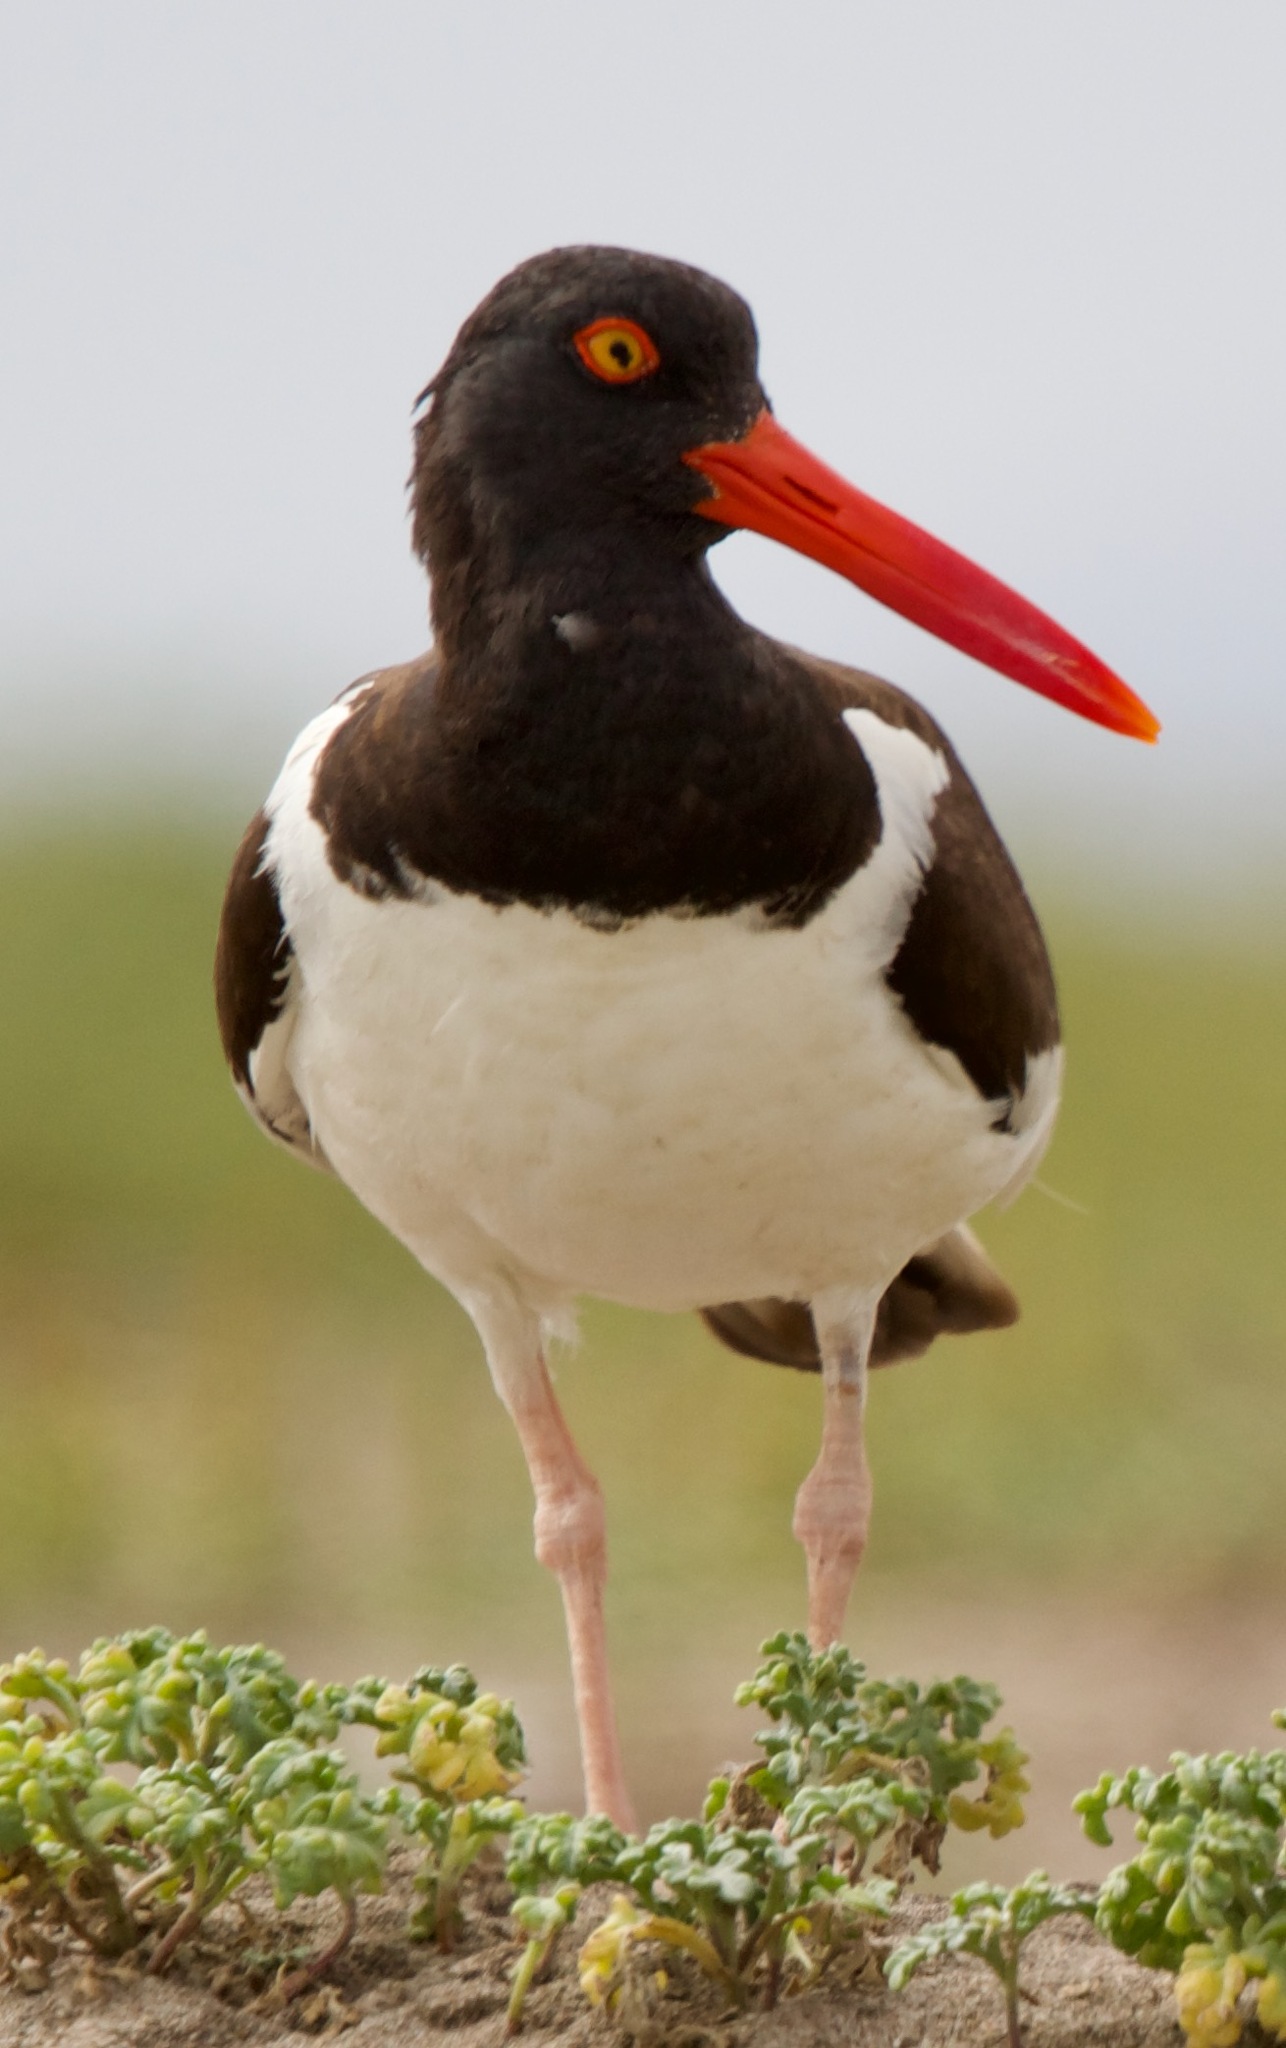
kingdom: Animalia
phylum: Chordata
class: Aves
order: Charadriiformes
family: Haematopodidae
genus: Haematopus
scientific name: Haematopus palliatus
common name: American oystercatcher
